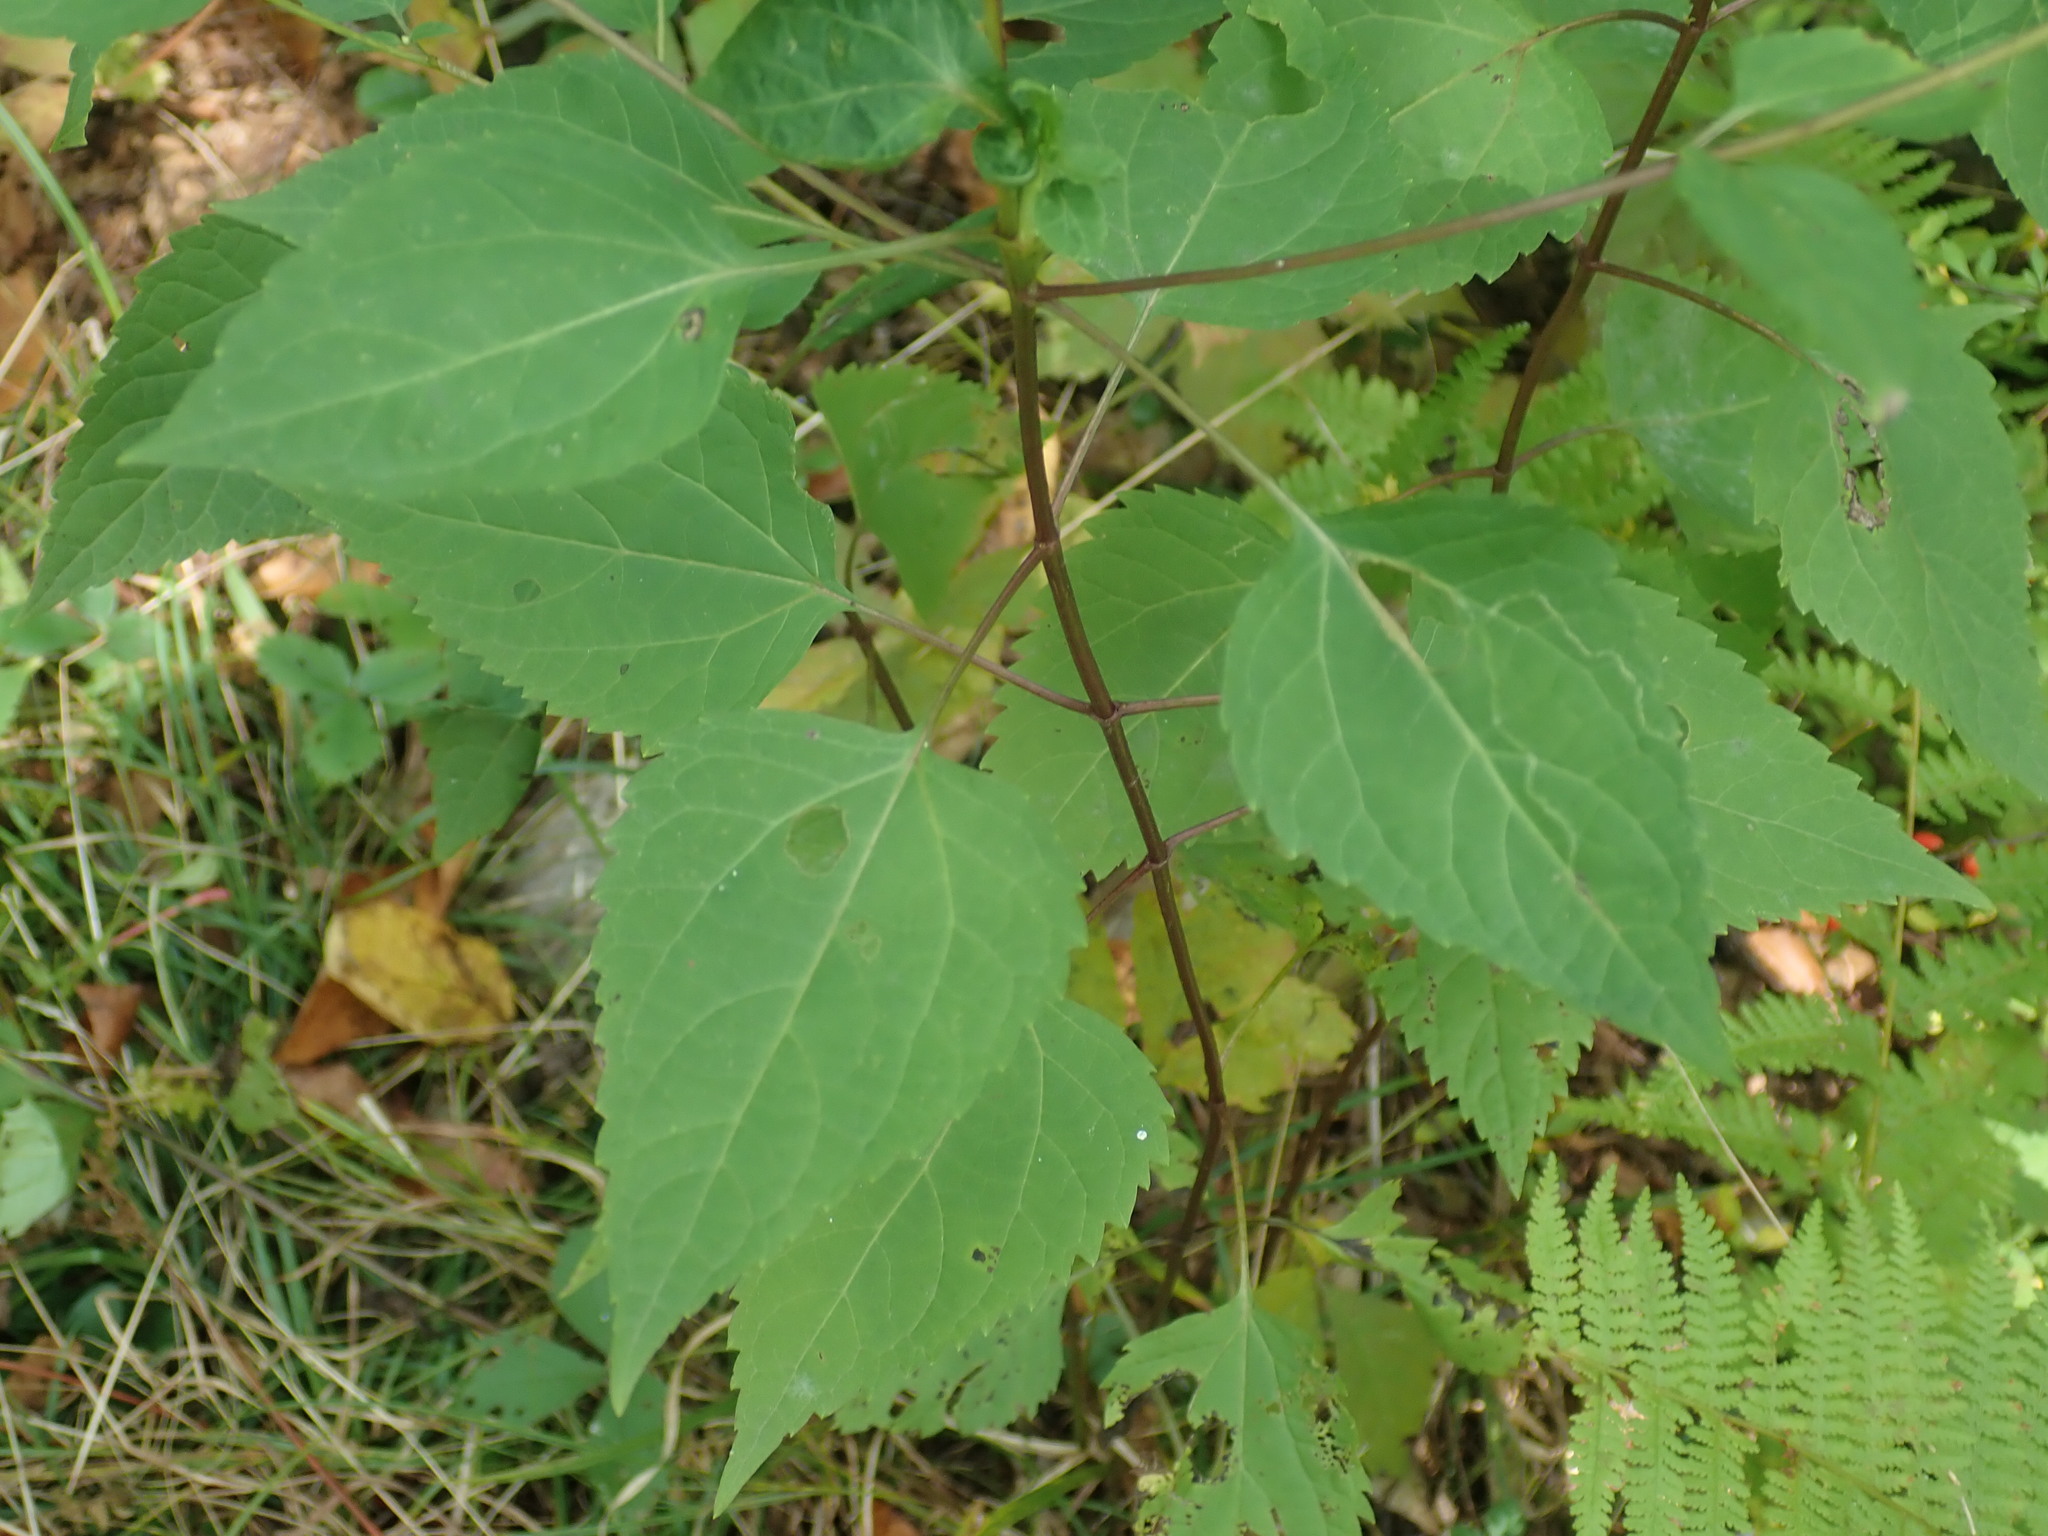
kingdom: Plantae
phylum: Tracheophyta
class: Magnoliopsida
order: Asterales
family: Asteraceae
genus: Ageratina
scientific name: Ageratina altissima
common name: White snakeroot
